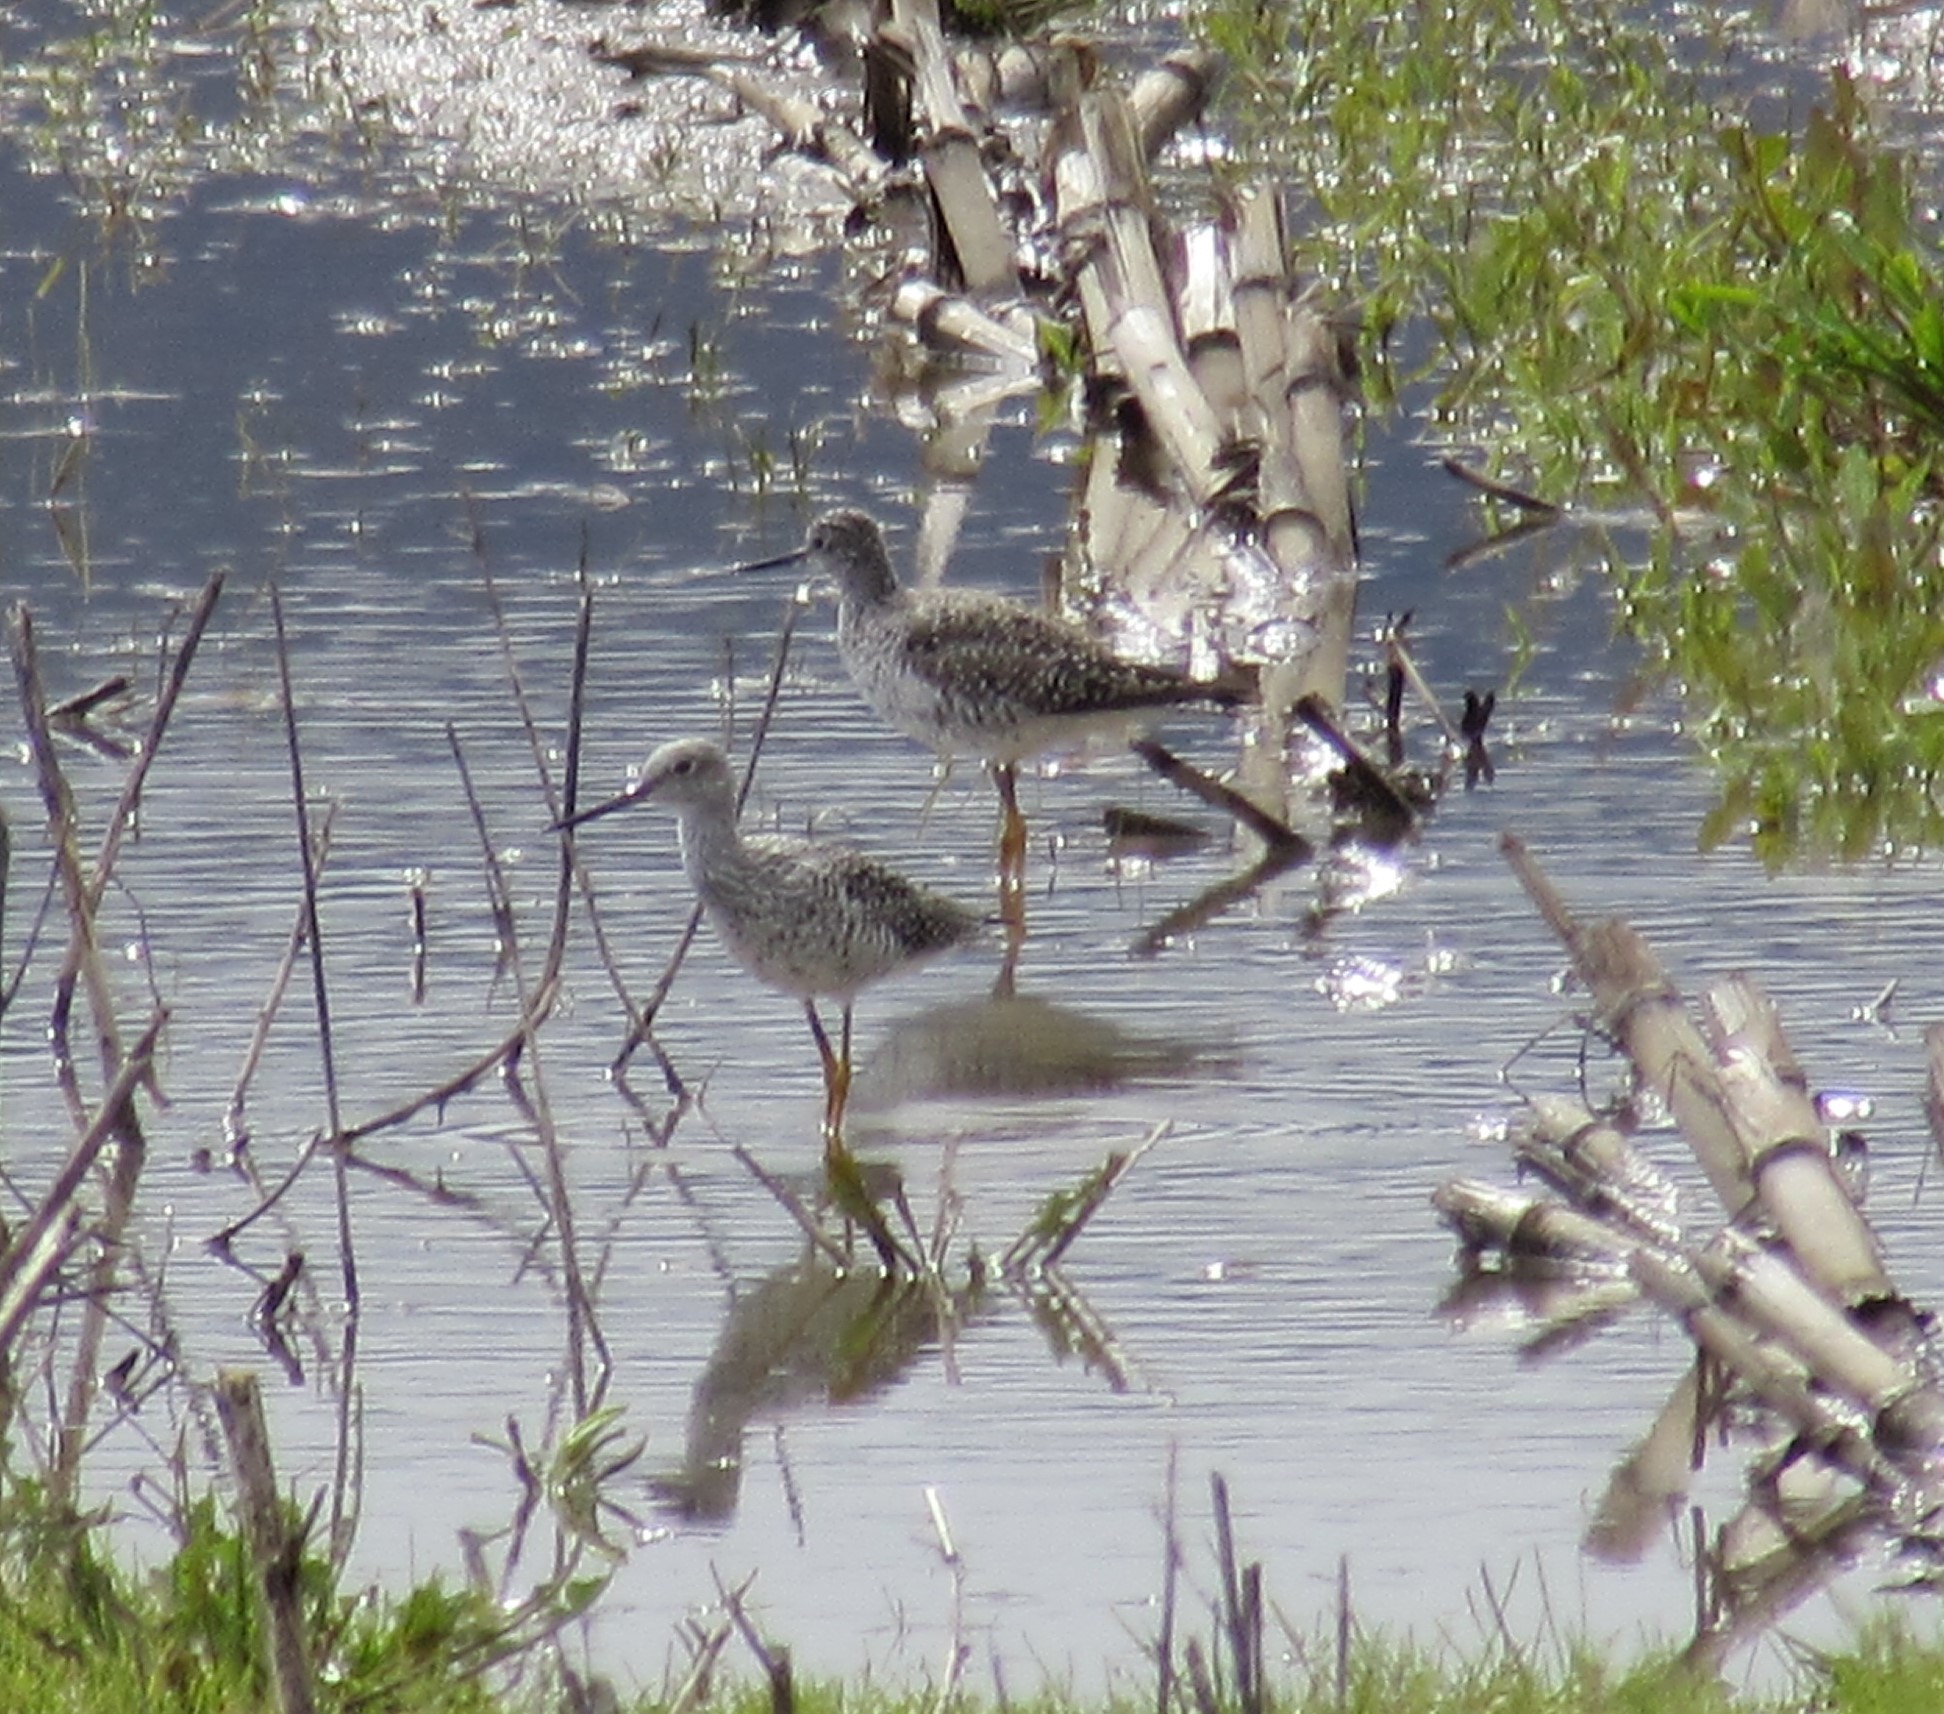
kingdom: Animalia
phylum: Chordata
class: Aves
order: Charadriiformes
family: Scolopacidae
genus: Tringa
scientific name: Tringa melanoleuca
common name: Greater yellowlegs
